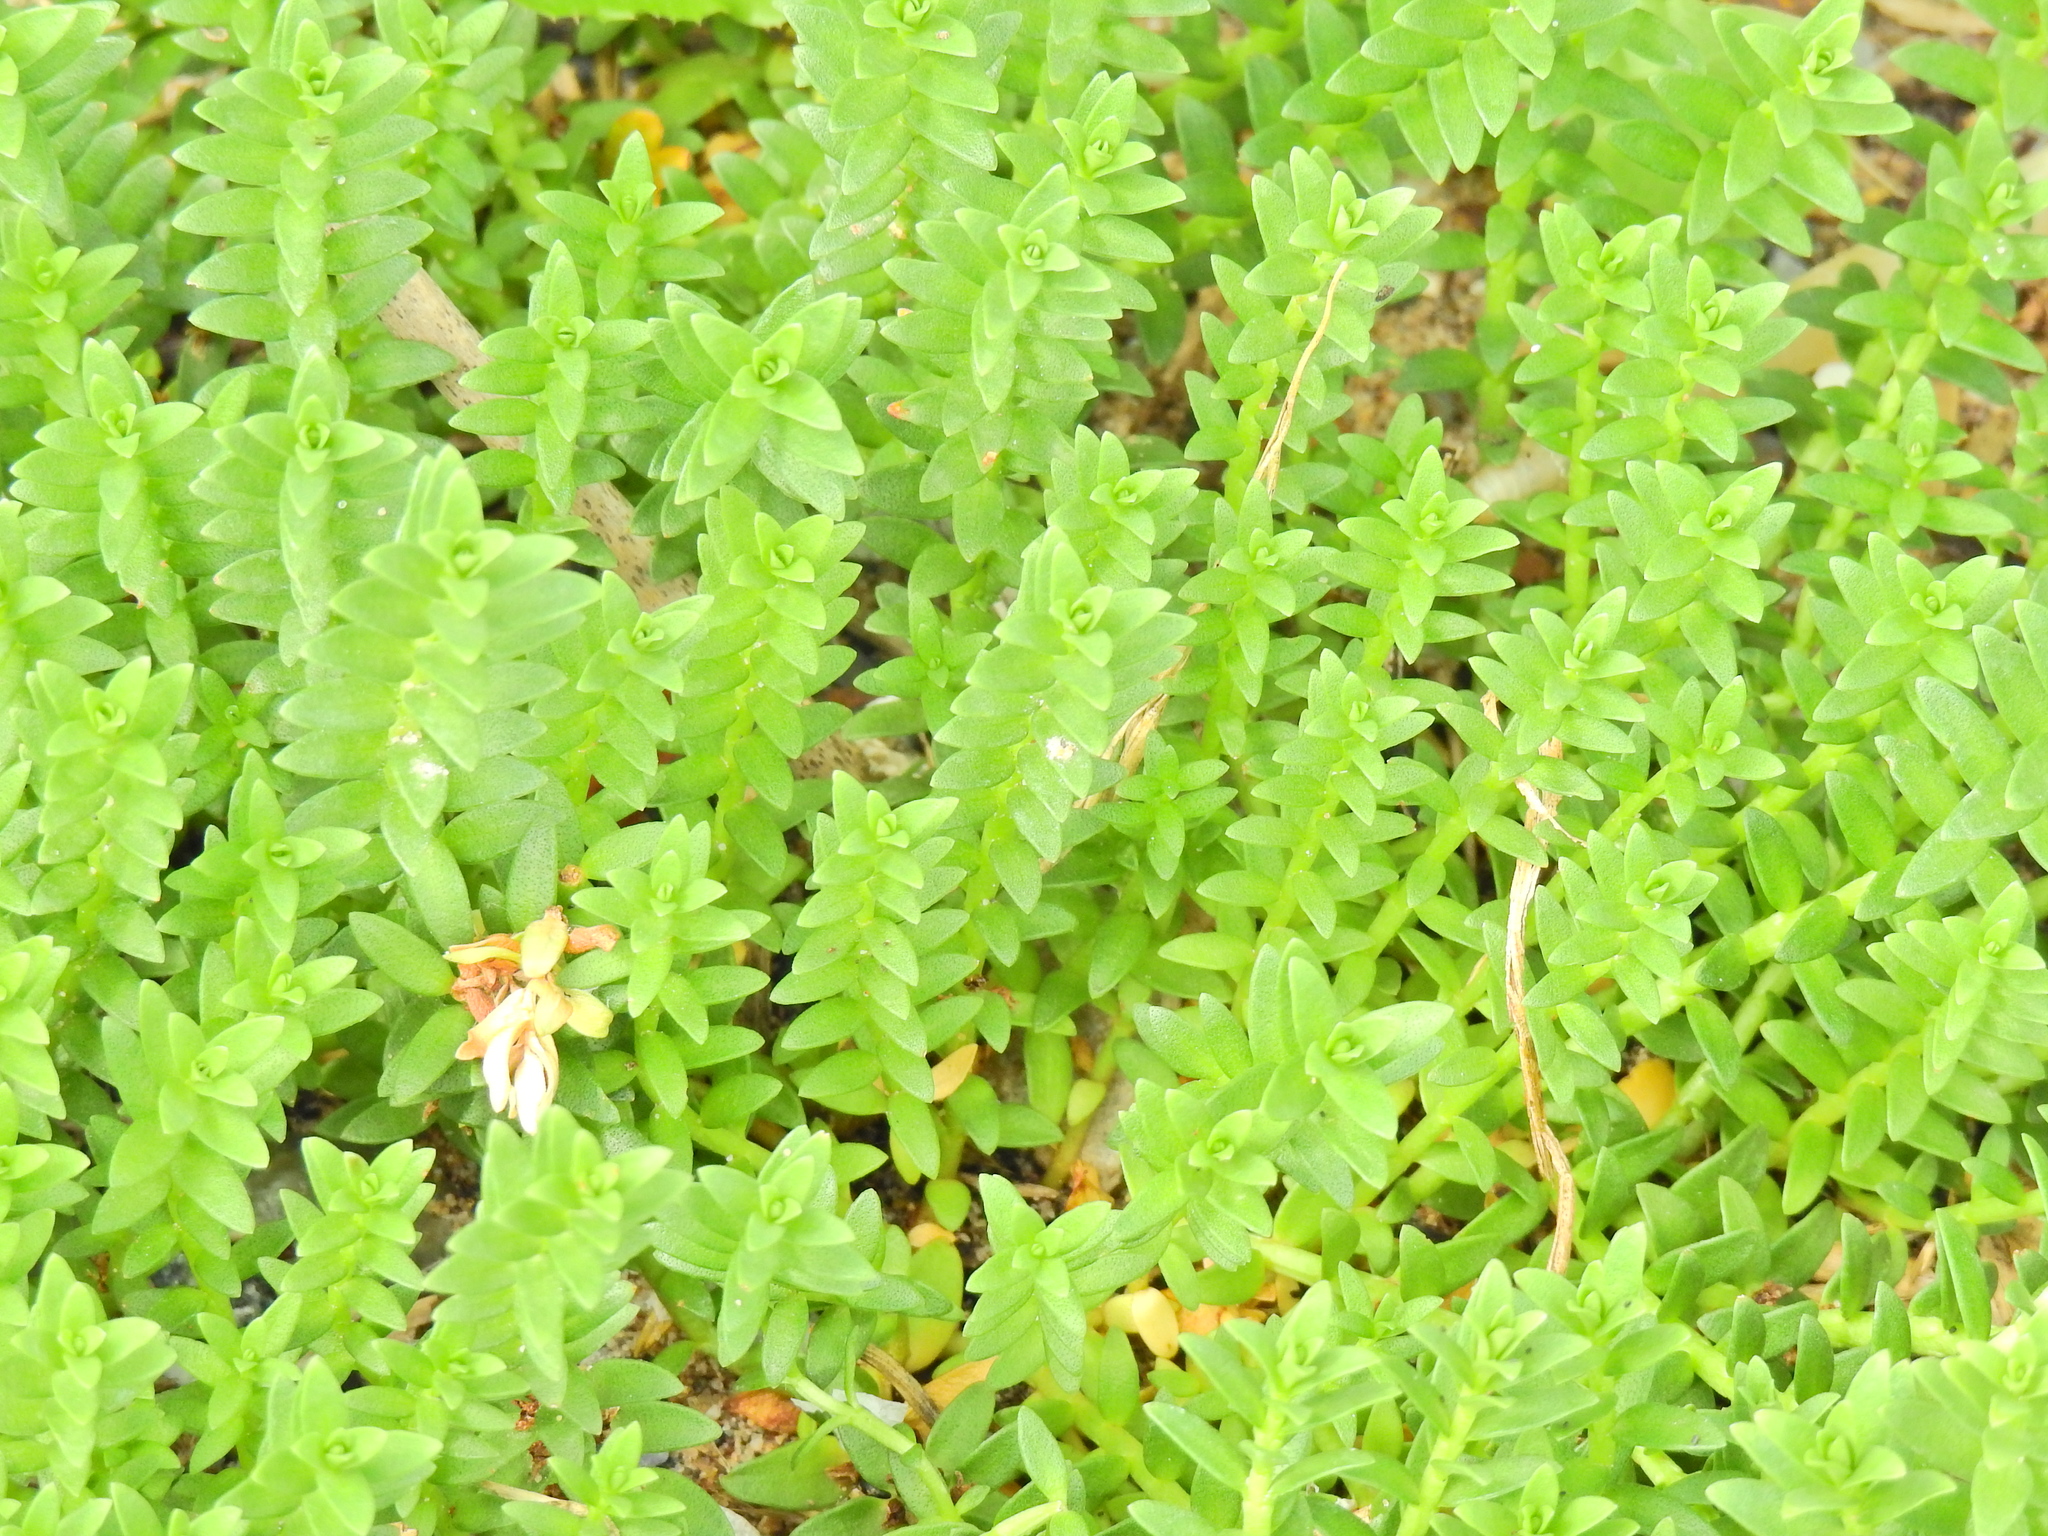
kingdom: Plantae
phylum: Tracheophyta
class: Magnoliopsida
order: Ericales
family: Primulaceae
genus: Lysimachia
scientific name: Lysimachia maritima
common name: Sea milkwort
